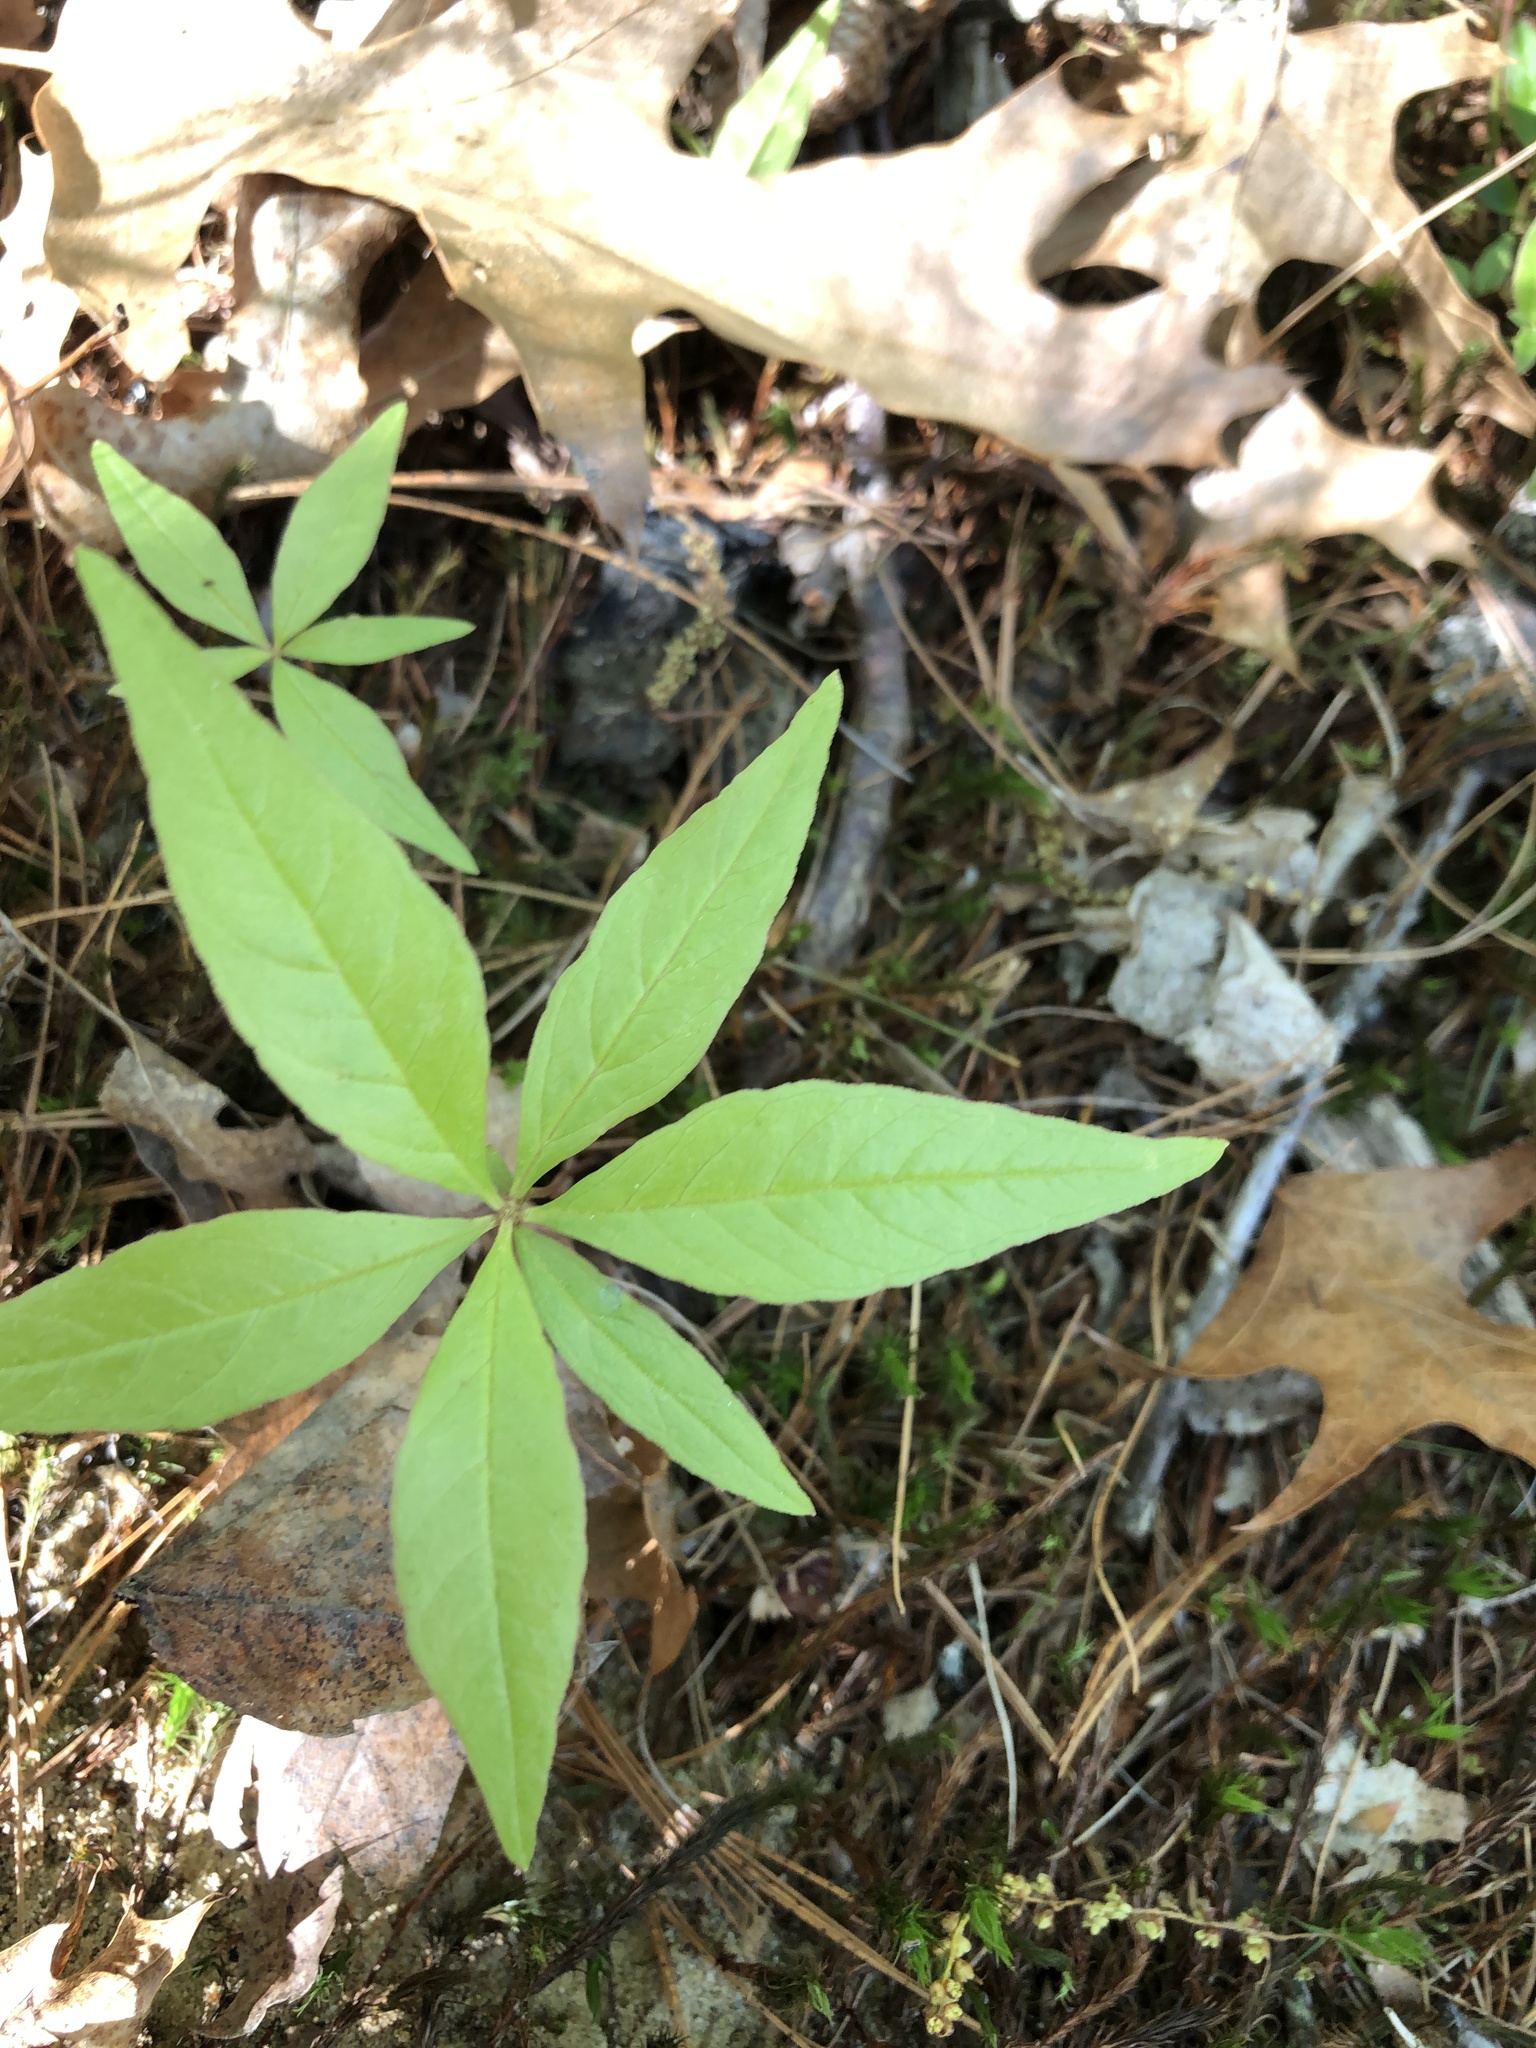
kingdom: Plantae
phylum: Tracheophyta
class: Magnoliopsida
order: Ericales
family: Primulaceae
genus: Lysimachia
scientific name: Lysimachia borealis
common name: American starflower
